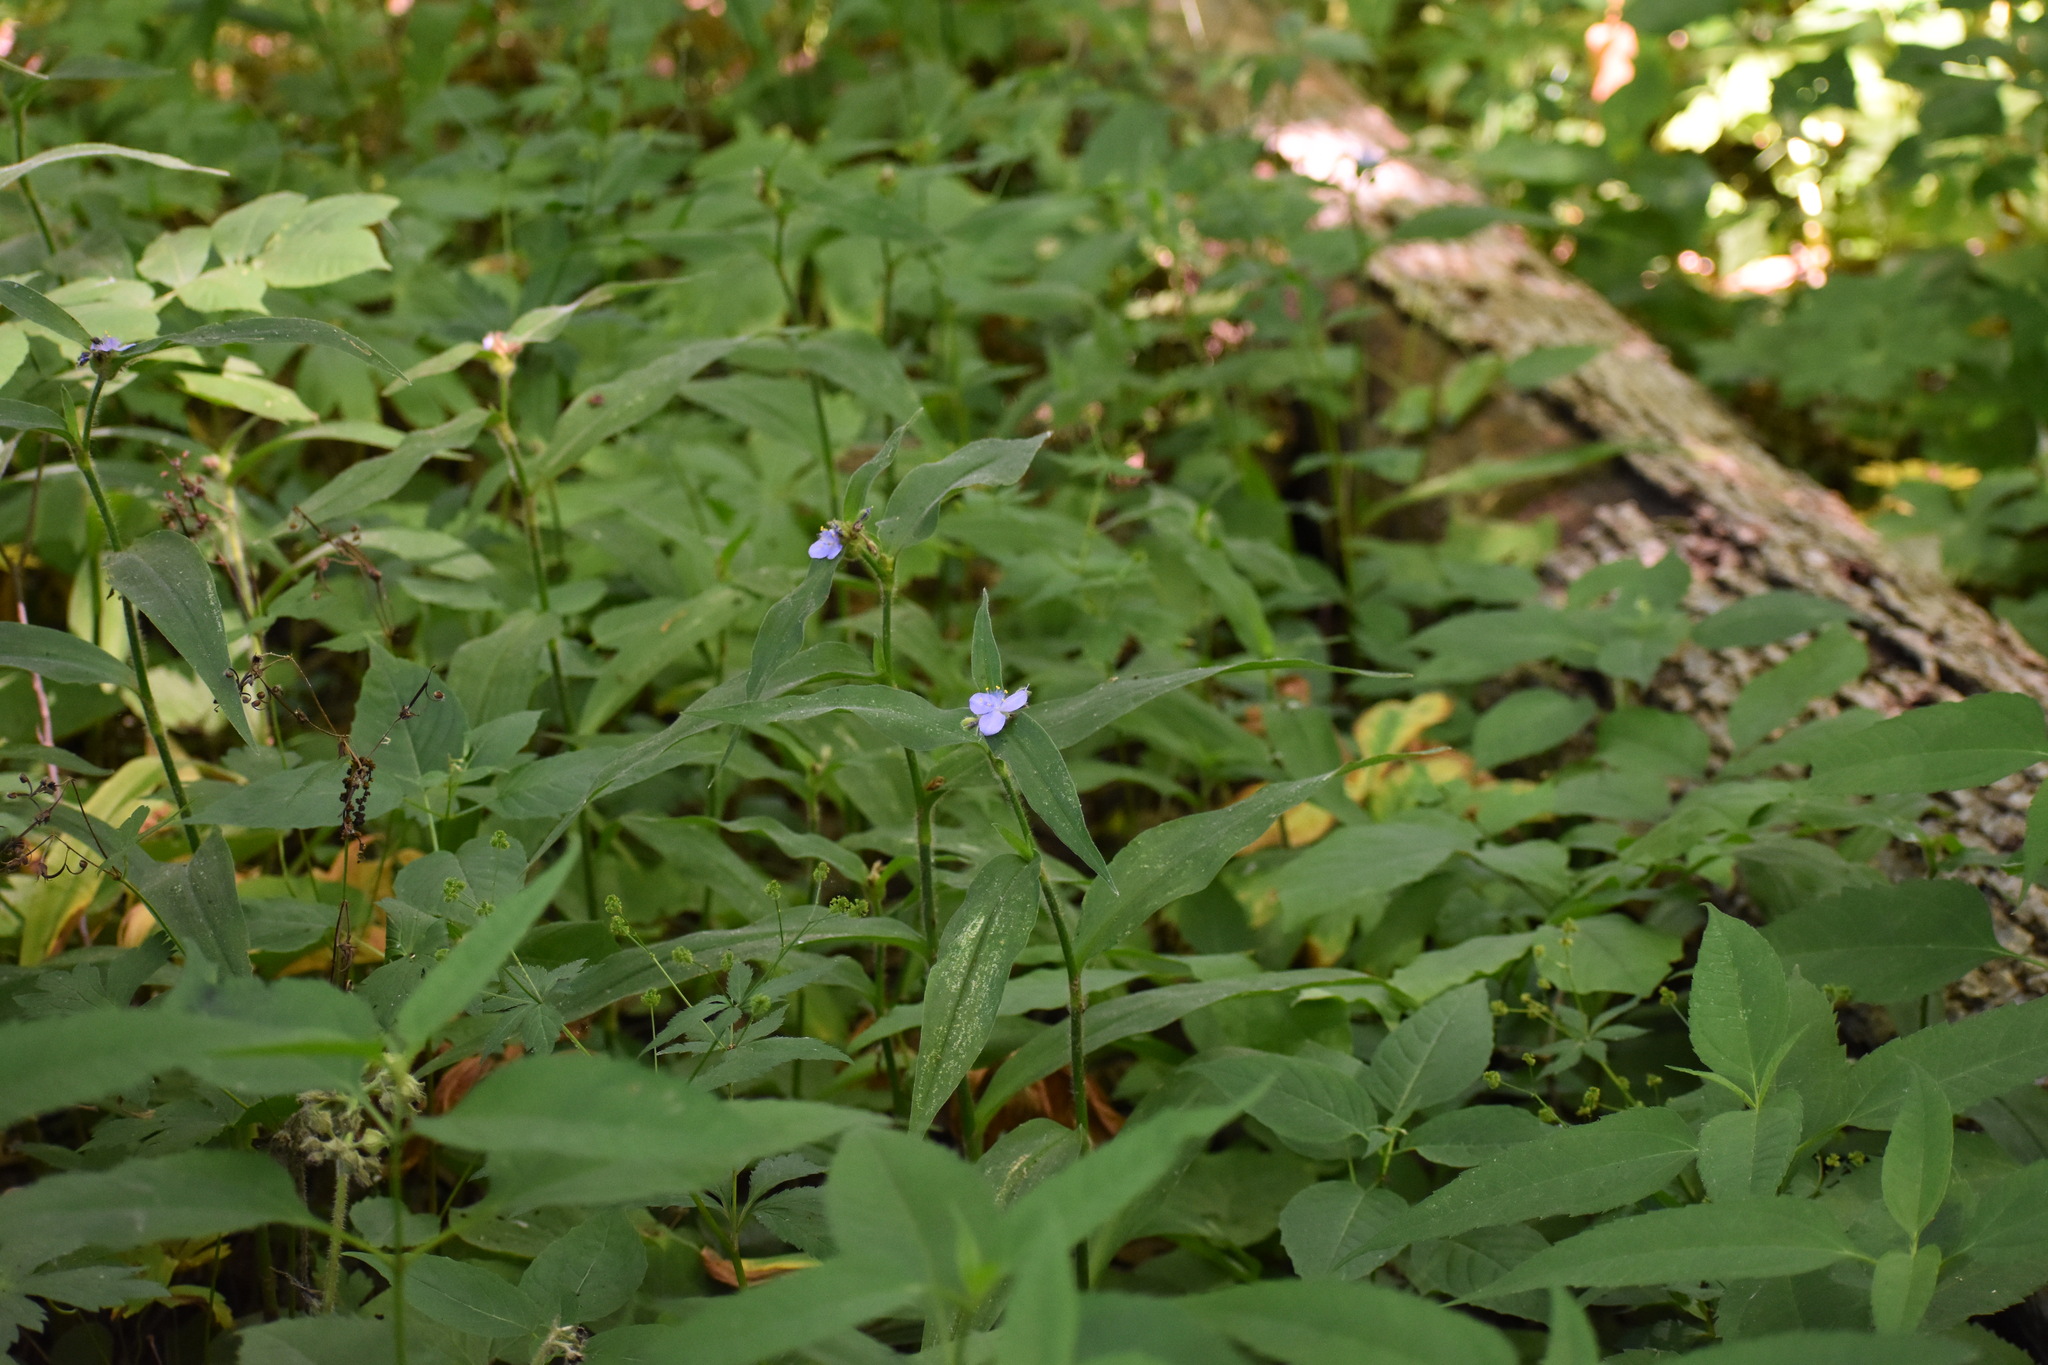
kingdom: Plantae
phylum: Tracheophyta
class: Liliopsida
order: Commelinales
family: Commelinaceae
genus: Tradescantia
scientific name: Tradescantia subaspera
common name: Wide-leaf spiderwort
